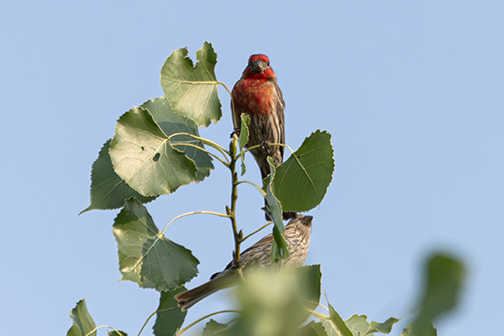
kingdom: Animalia
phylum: Chordata
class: Aves
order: Passeriformes
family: Fringillidae
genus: Haemorhous
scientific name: Haemorhous mexicanus
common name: House finch
